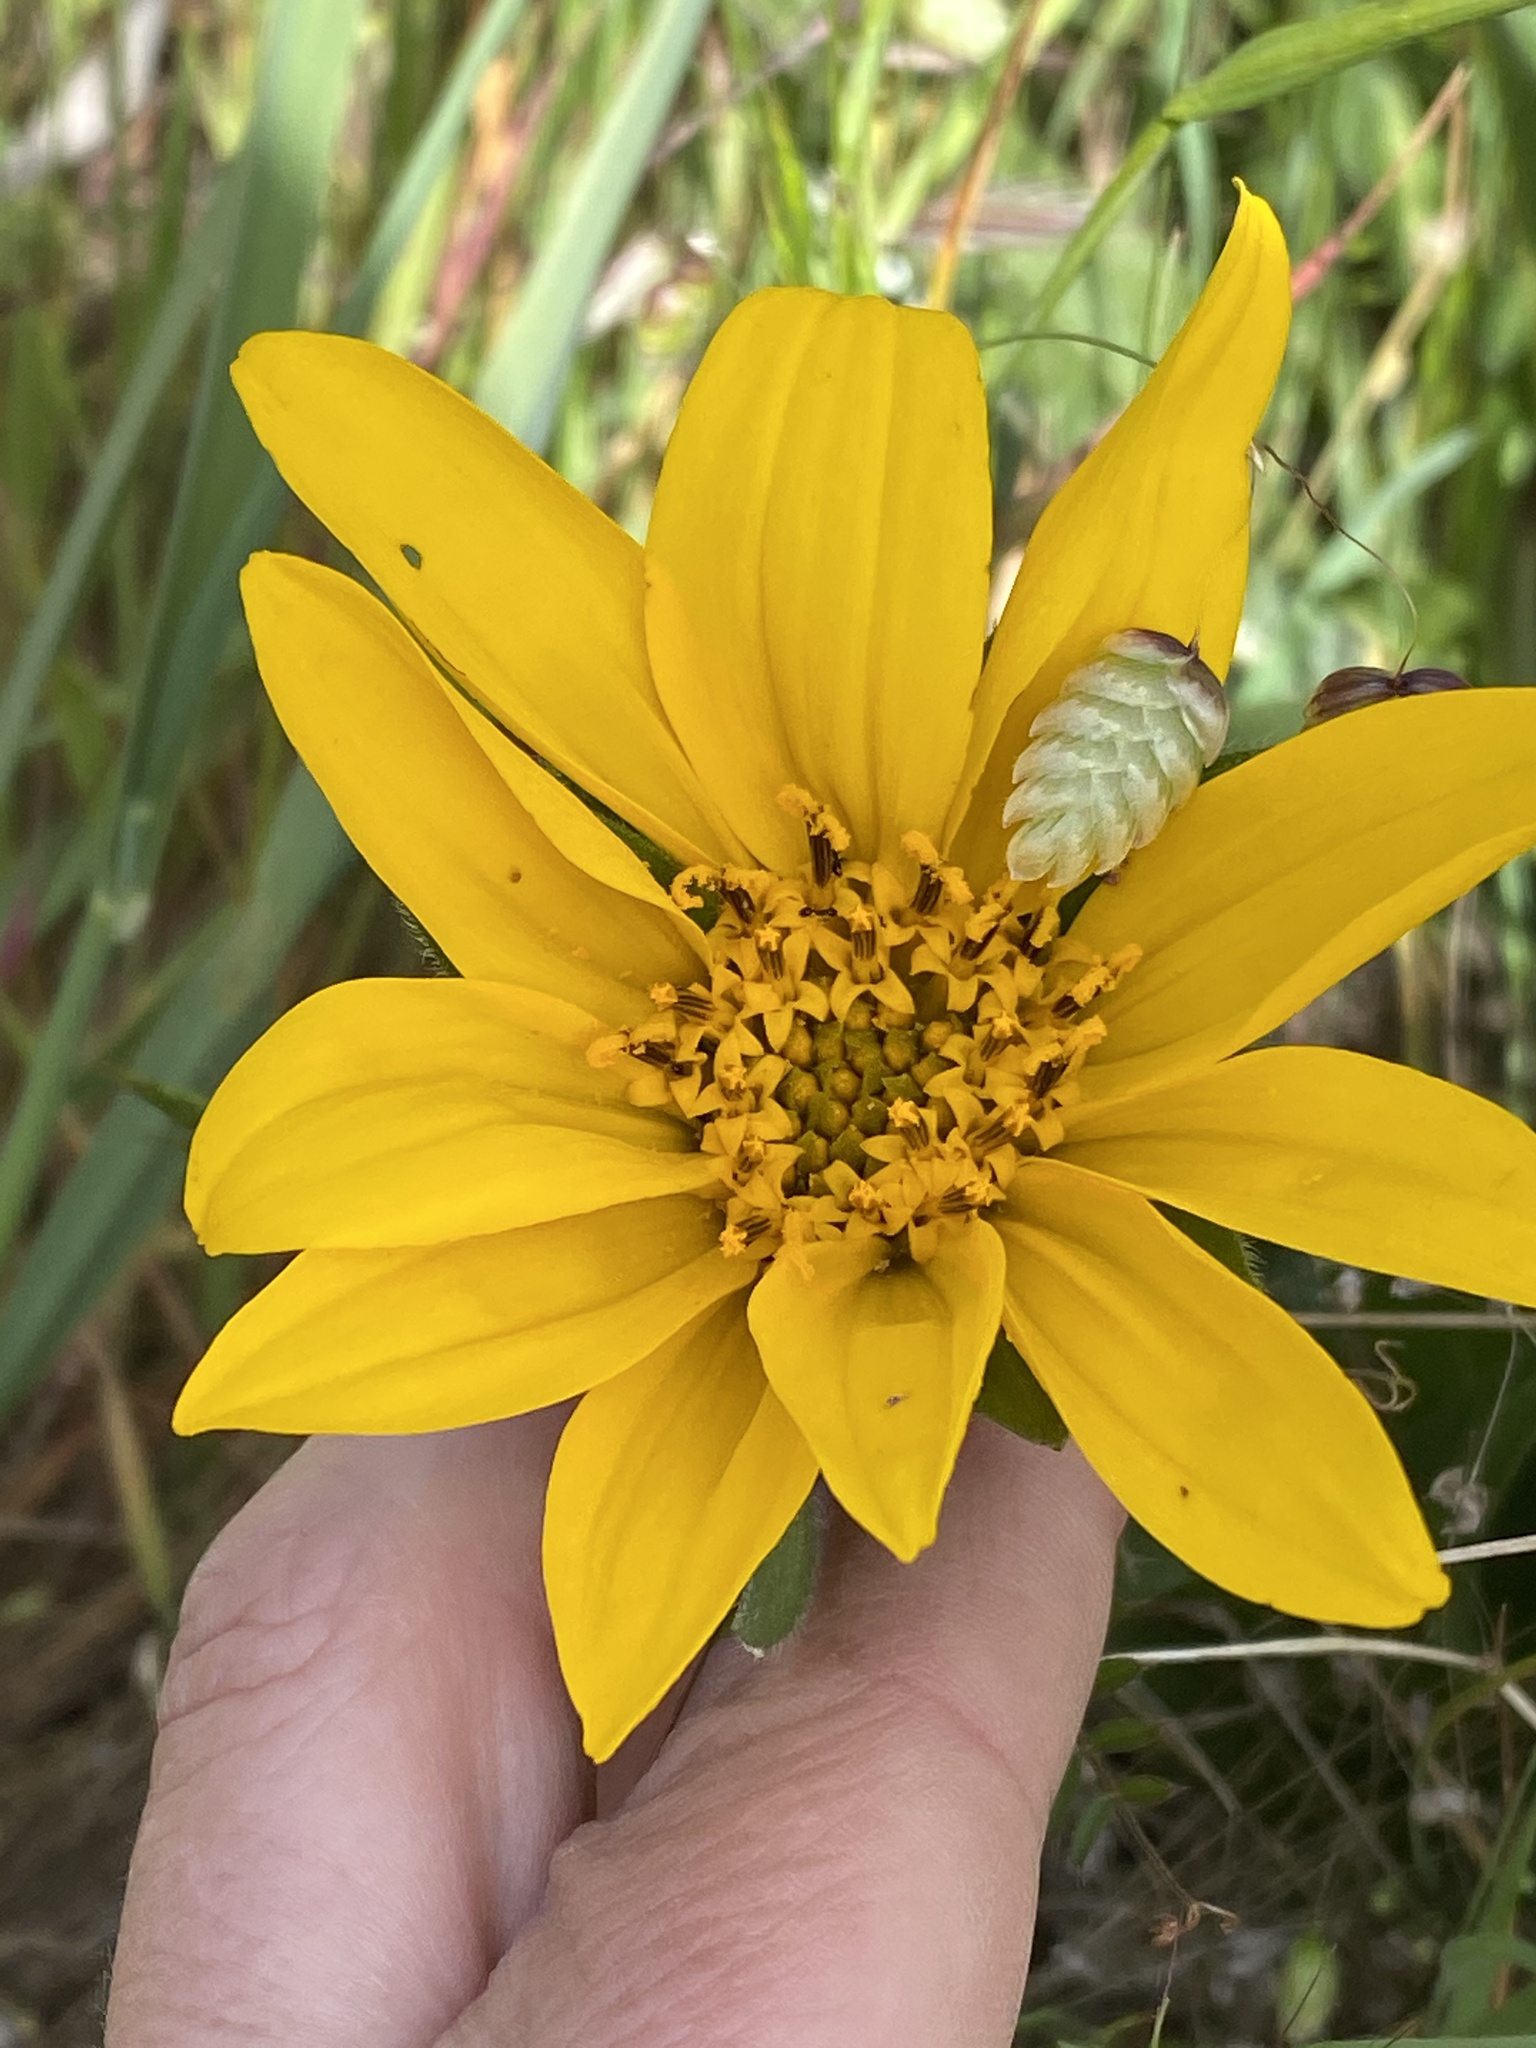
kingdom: Plantae
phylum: Tracheophyta
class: Magnoliopsida
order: Asterales
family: Asteraceae
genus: Wyethia
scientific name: Wyethia angustifolia
